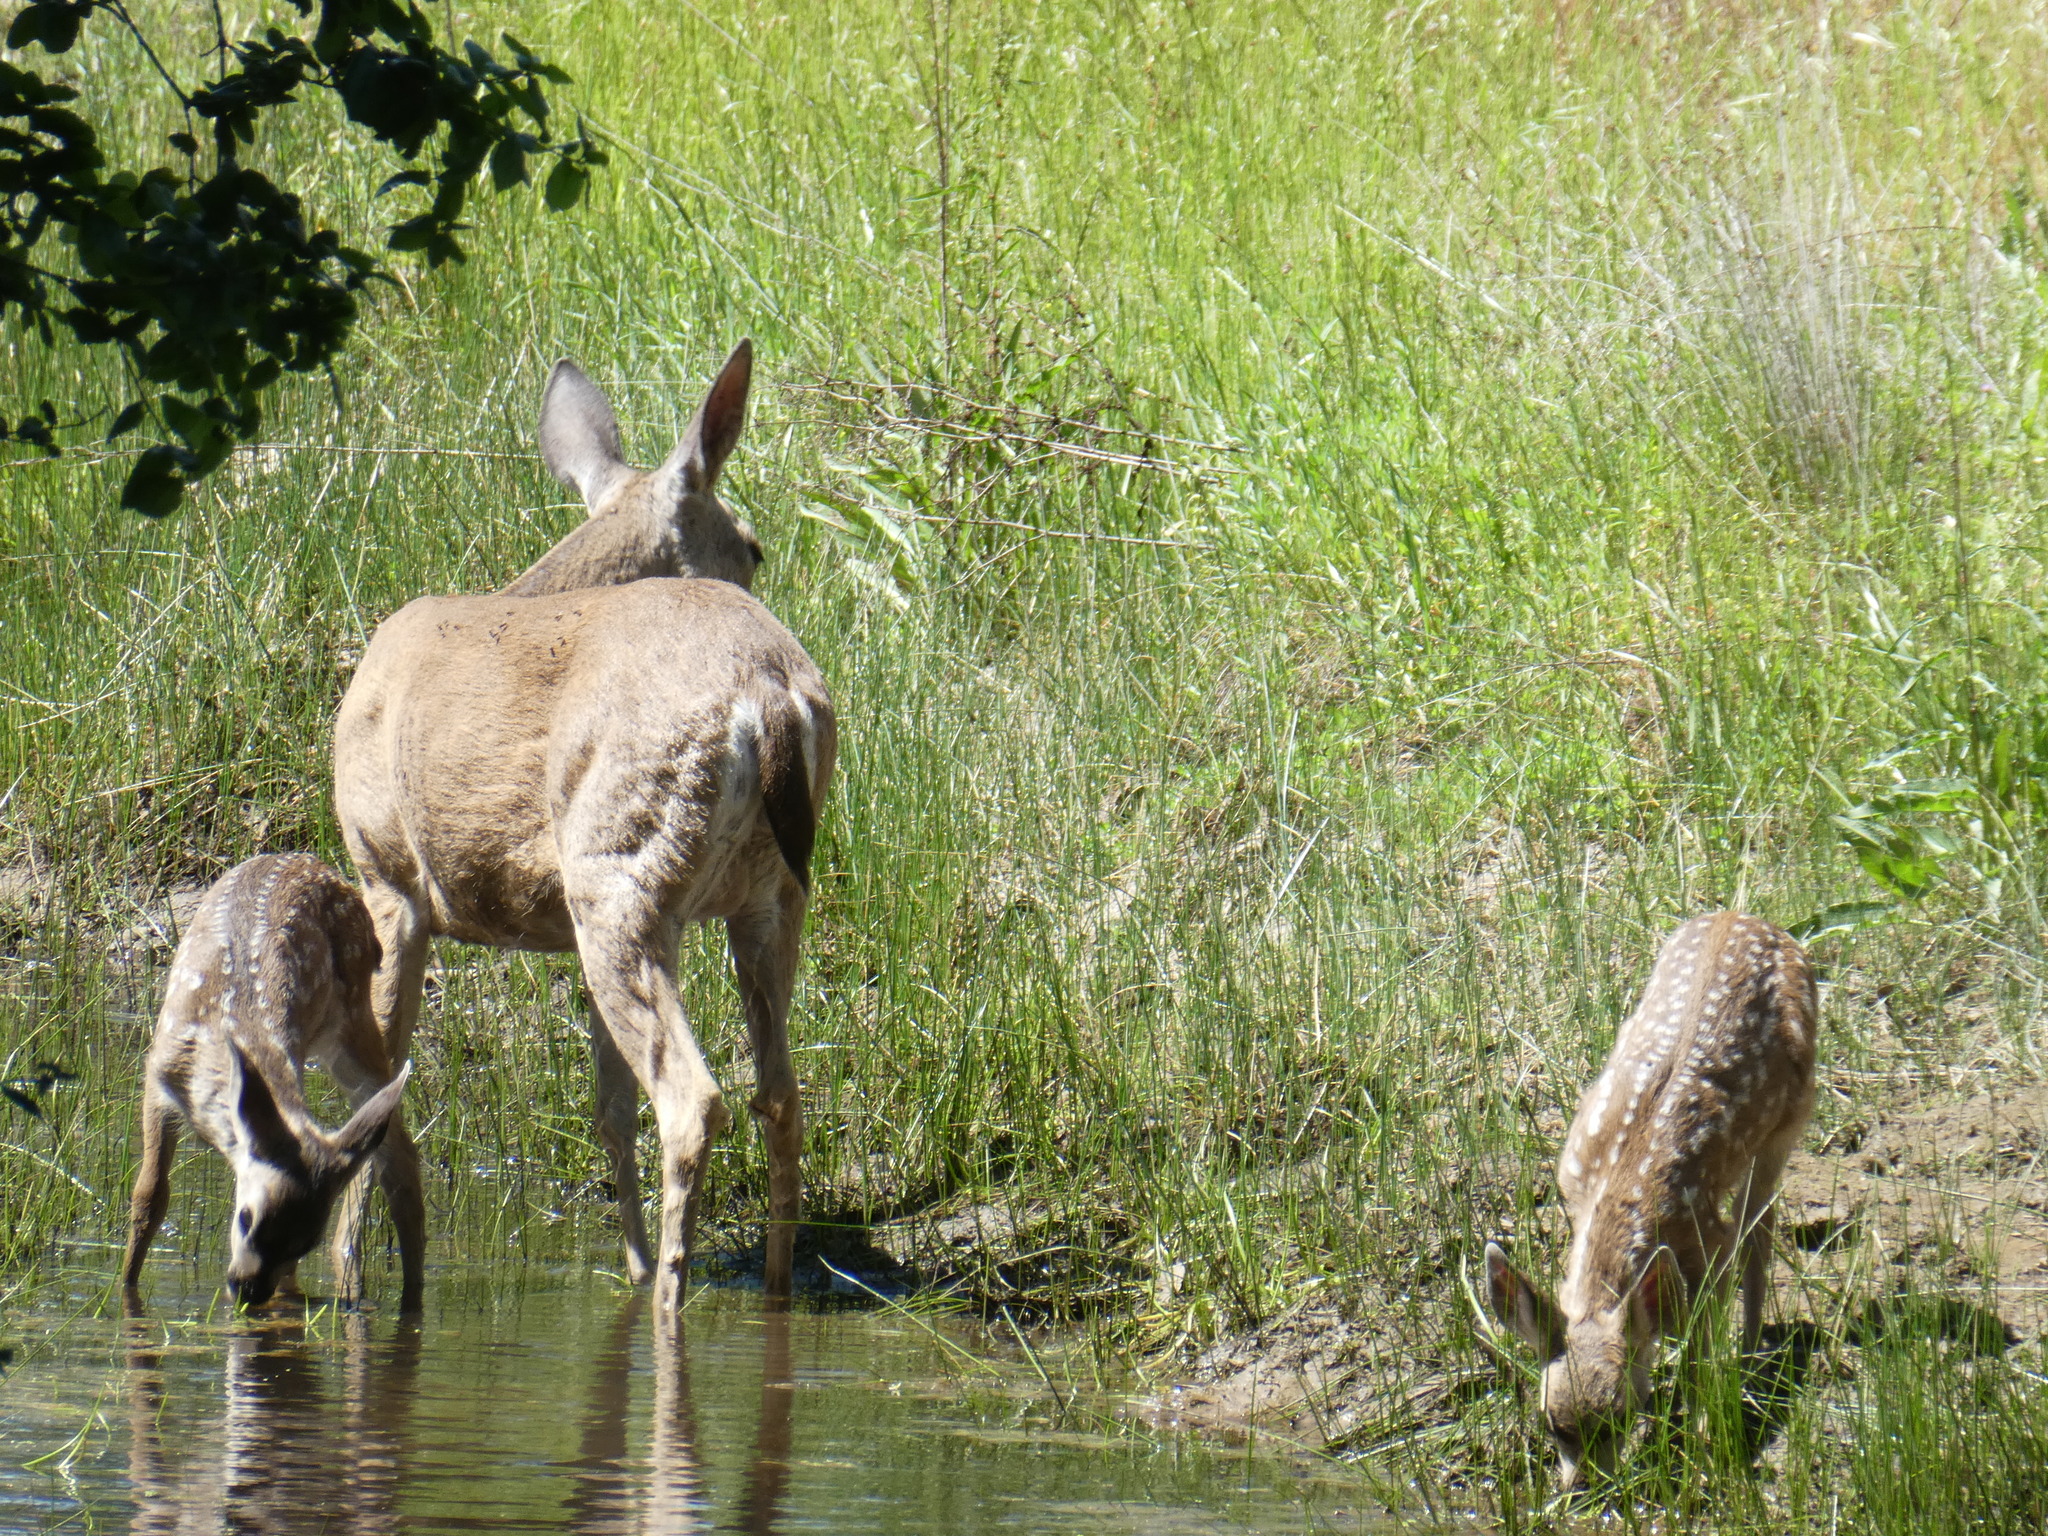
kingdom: Animalia
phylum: Chordata
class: Mammalia
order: Artiodactyla
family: Cervidae
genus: Odocoileus
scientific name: Odocoileus hemionus
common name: Mule deer
